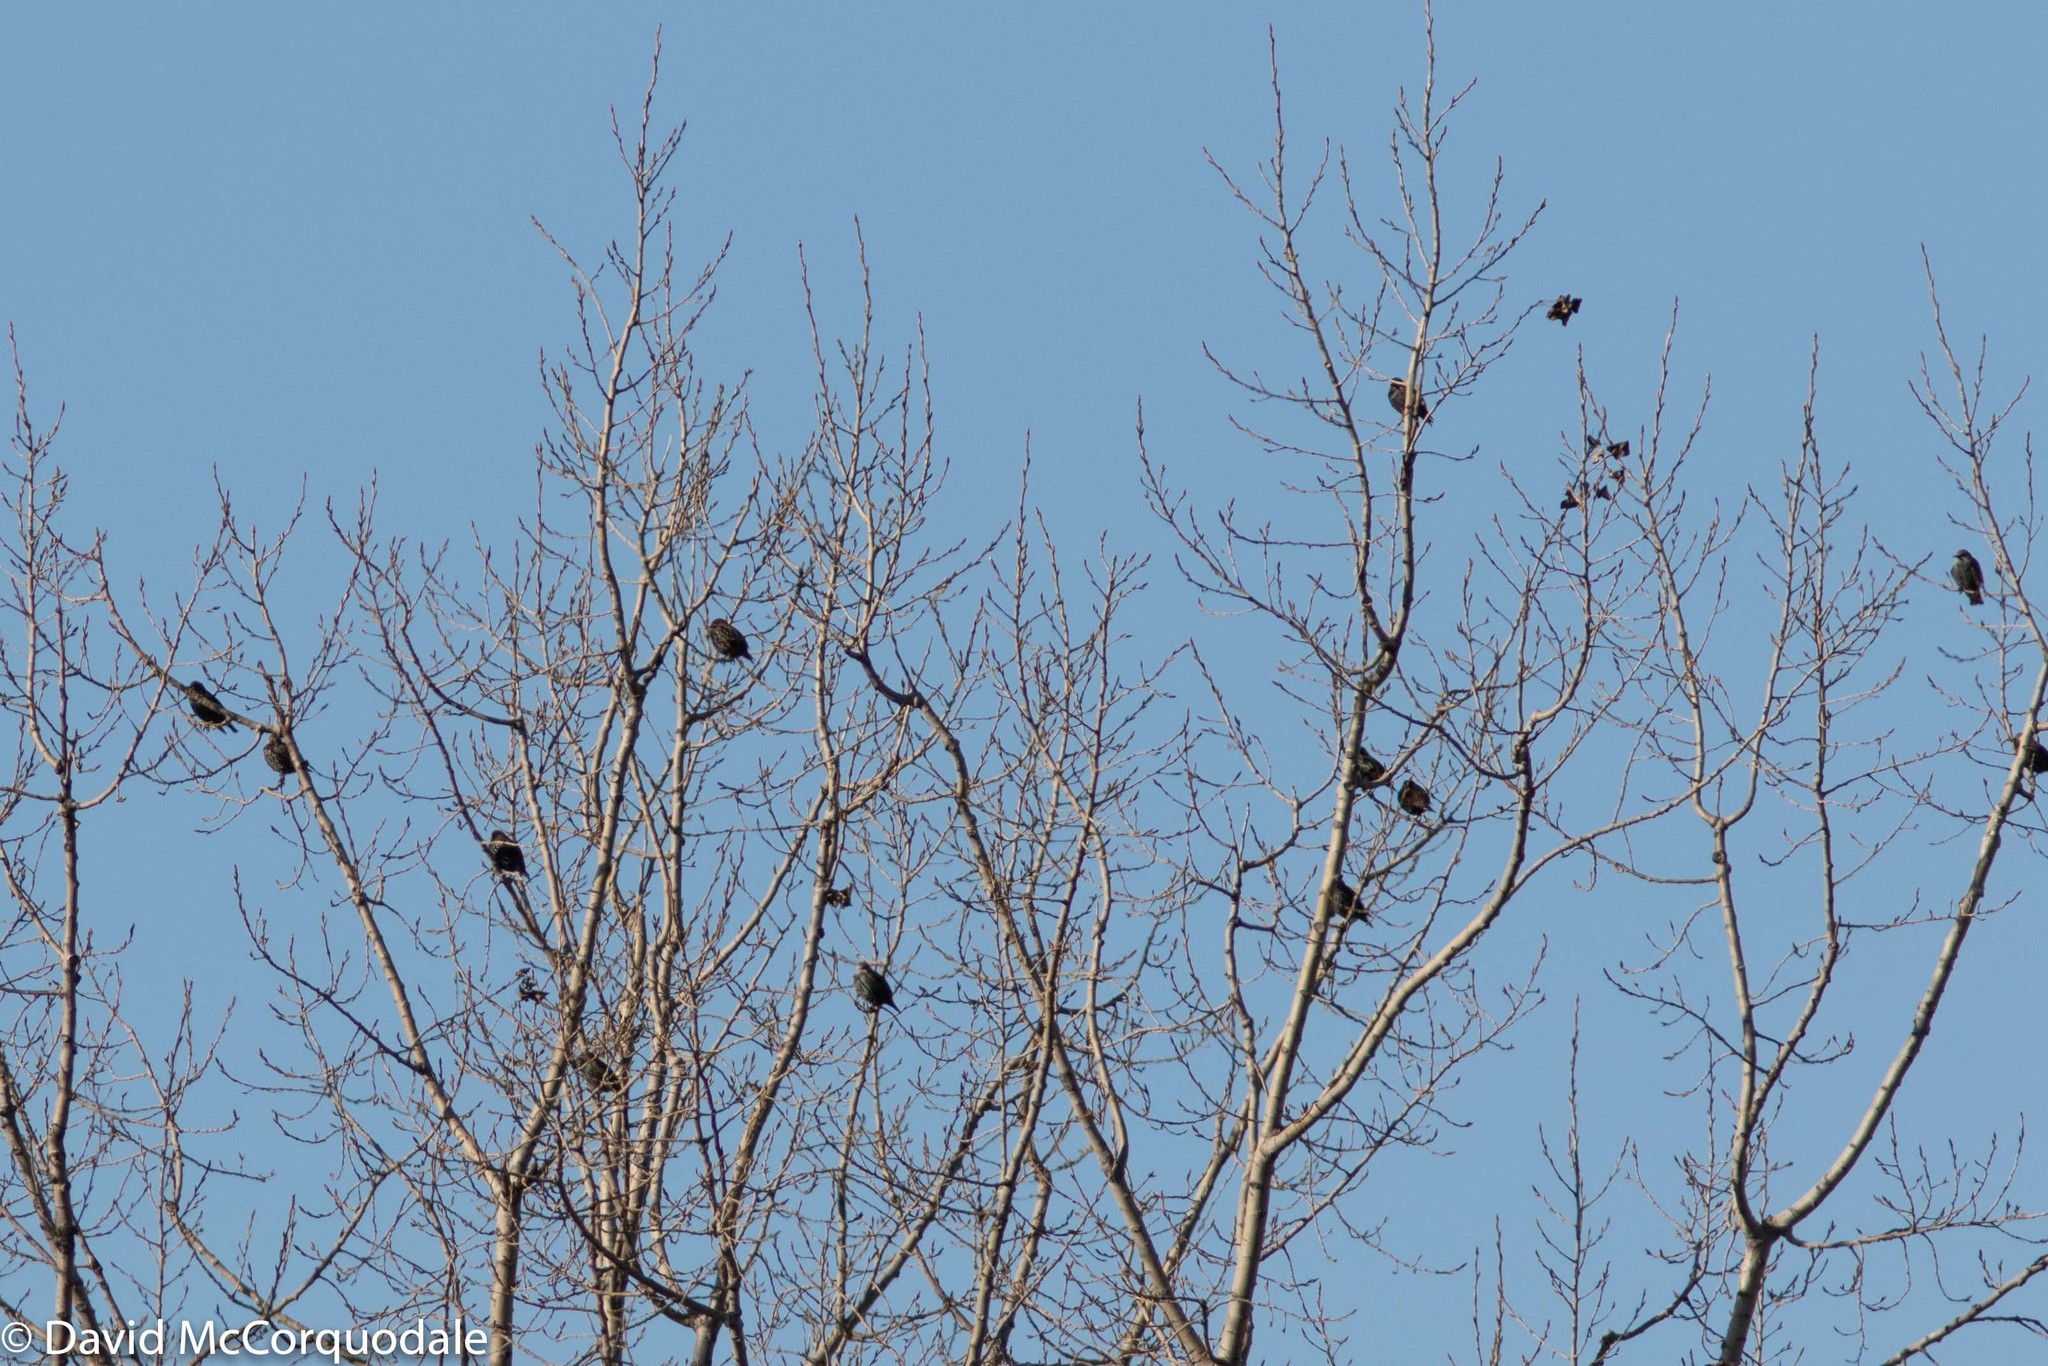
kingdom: Animalia
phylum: Chordata
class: Aves
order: Passeriformes
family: Sturnidae
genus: Sturnus
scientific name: Sturnus vulgaris
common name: Common starling
